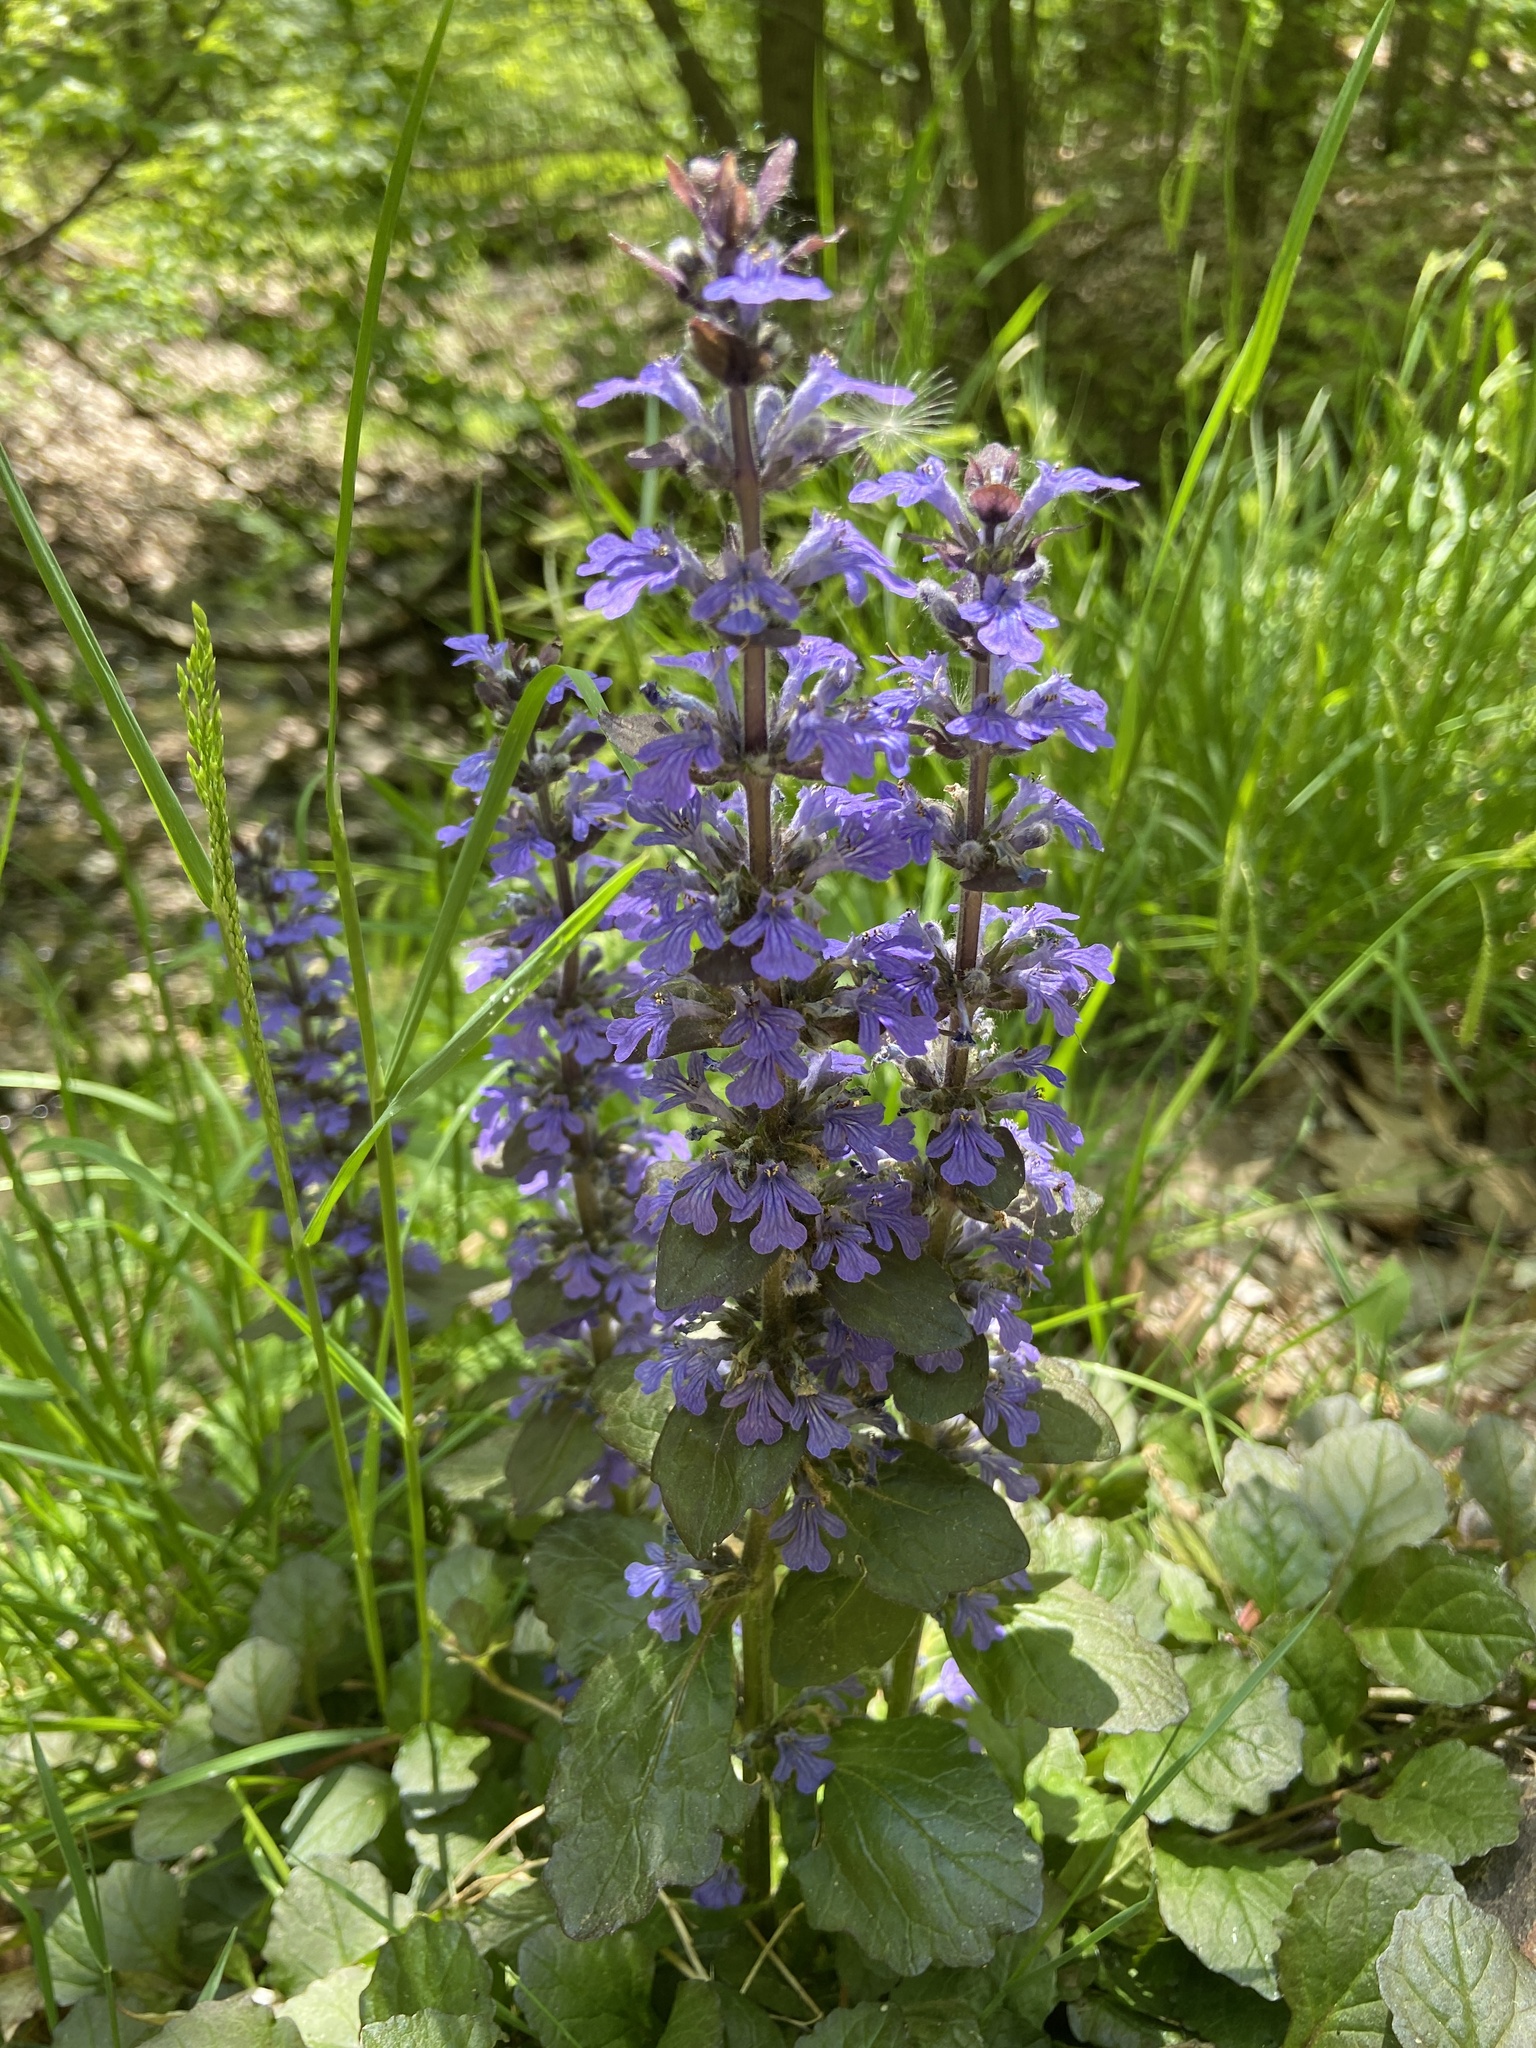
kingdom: Plantae
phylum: Tracheophyta
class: Magnoliopsida
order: Lamiales
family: Lamiaceae
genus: Ajuga
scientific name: Ajuga reptans
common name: Bugle
